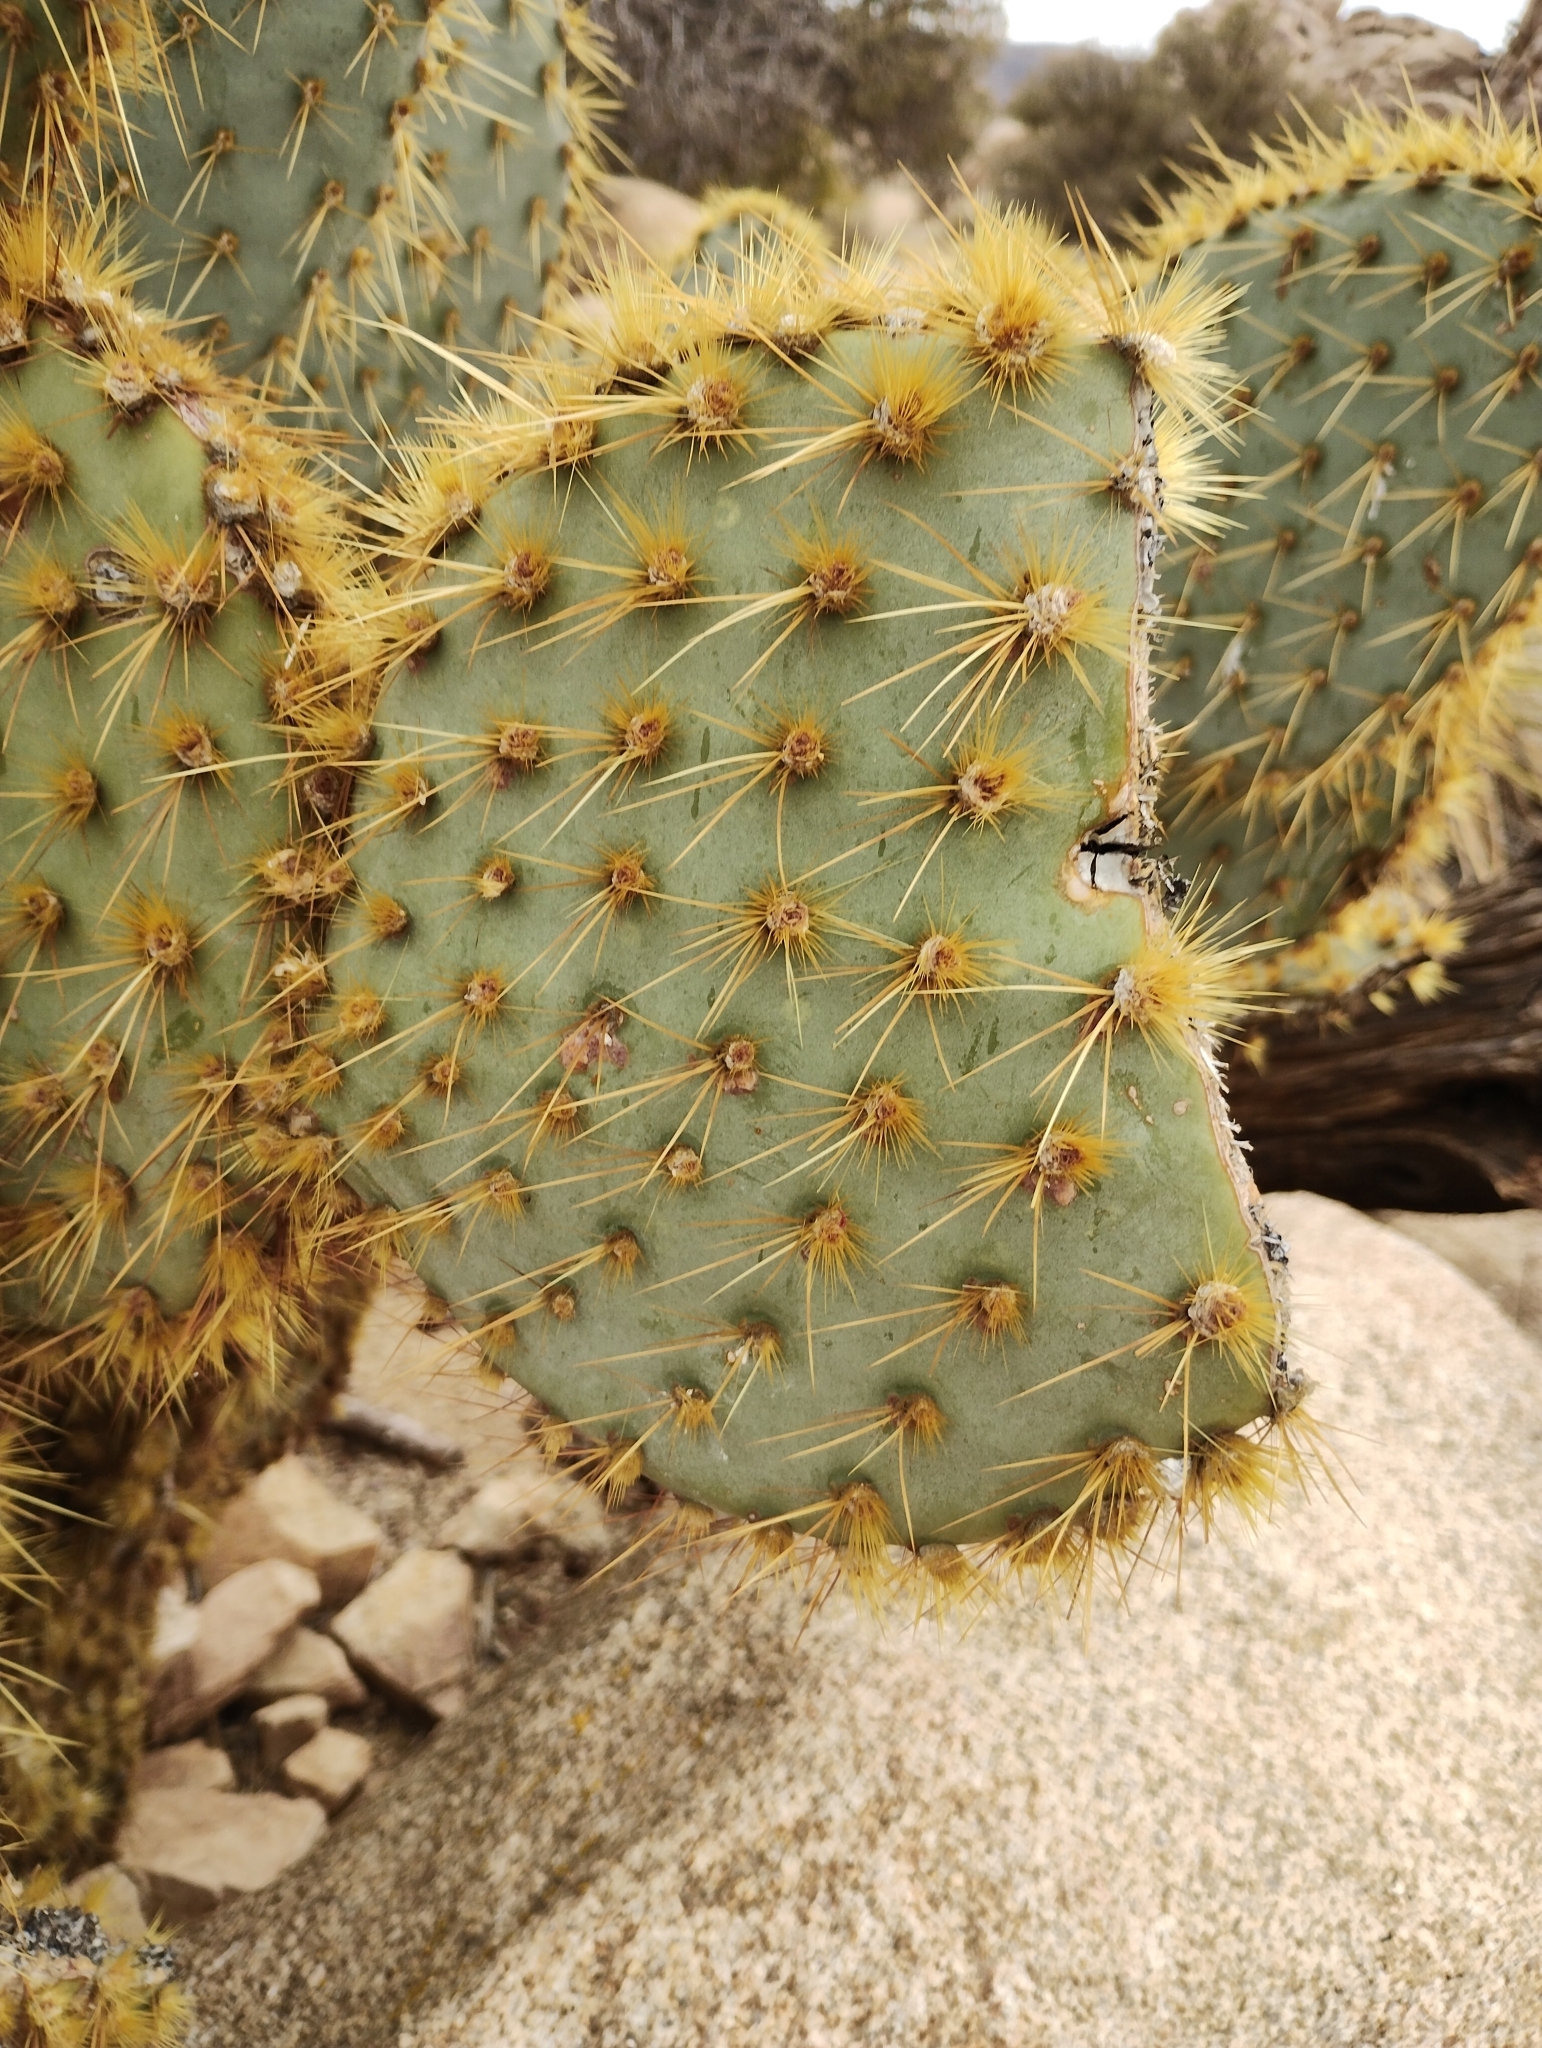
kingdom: Plantae
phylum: Tracheophyta
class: Magnoliopsida
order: Caryophyllales
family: Cactaceae
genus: Opuntia
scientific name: Opuntia chlorotica
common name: Dollar-joint prickly-pear
